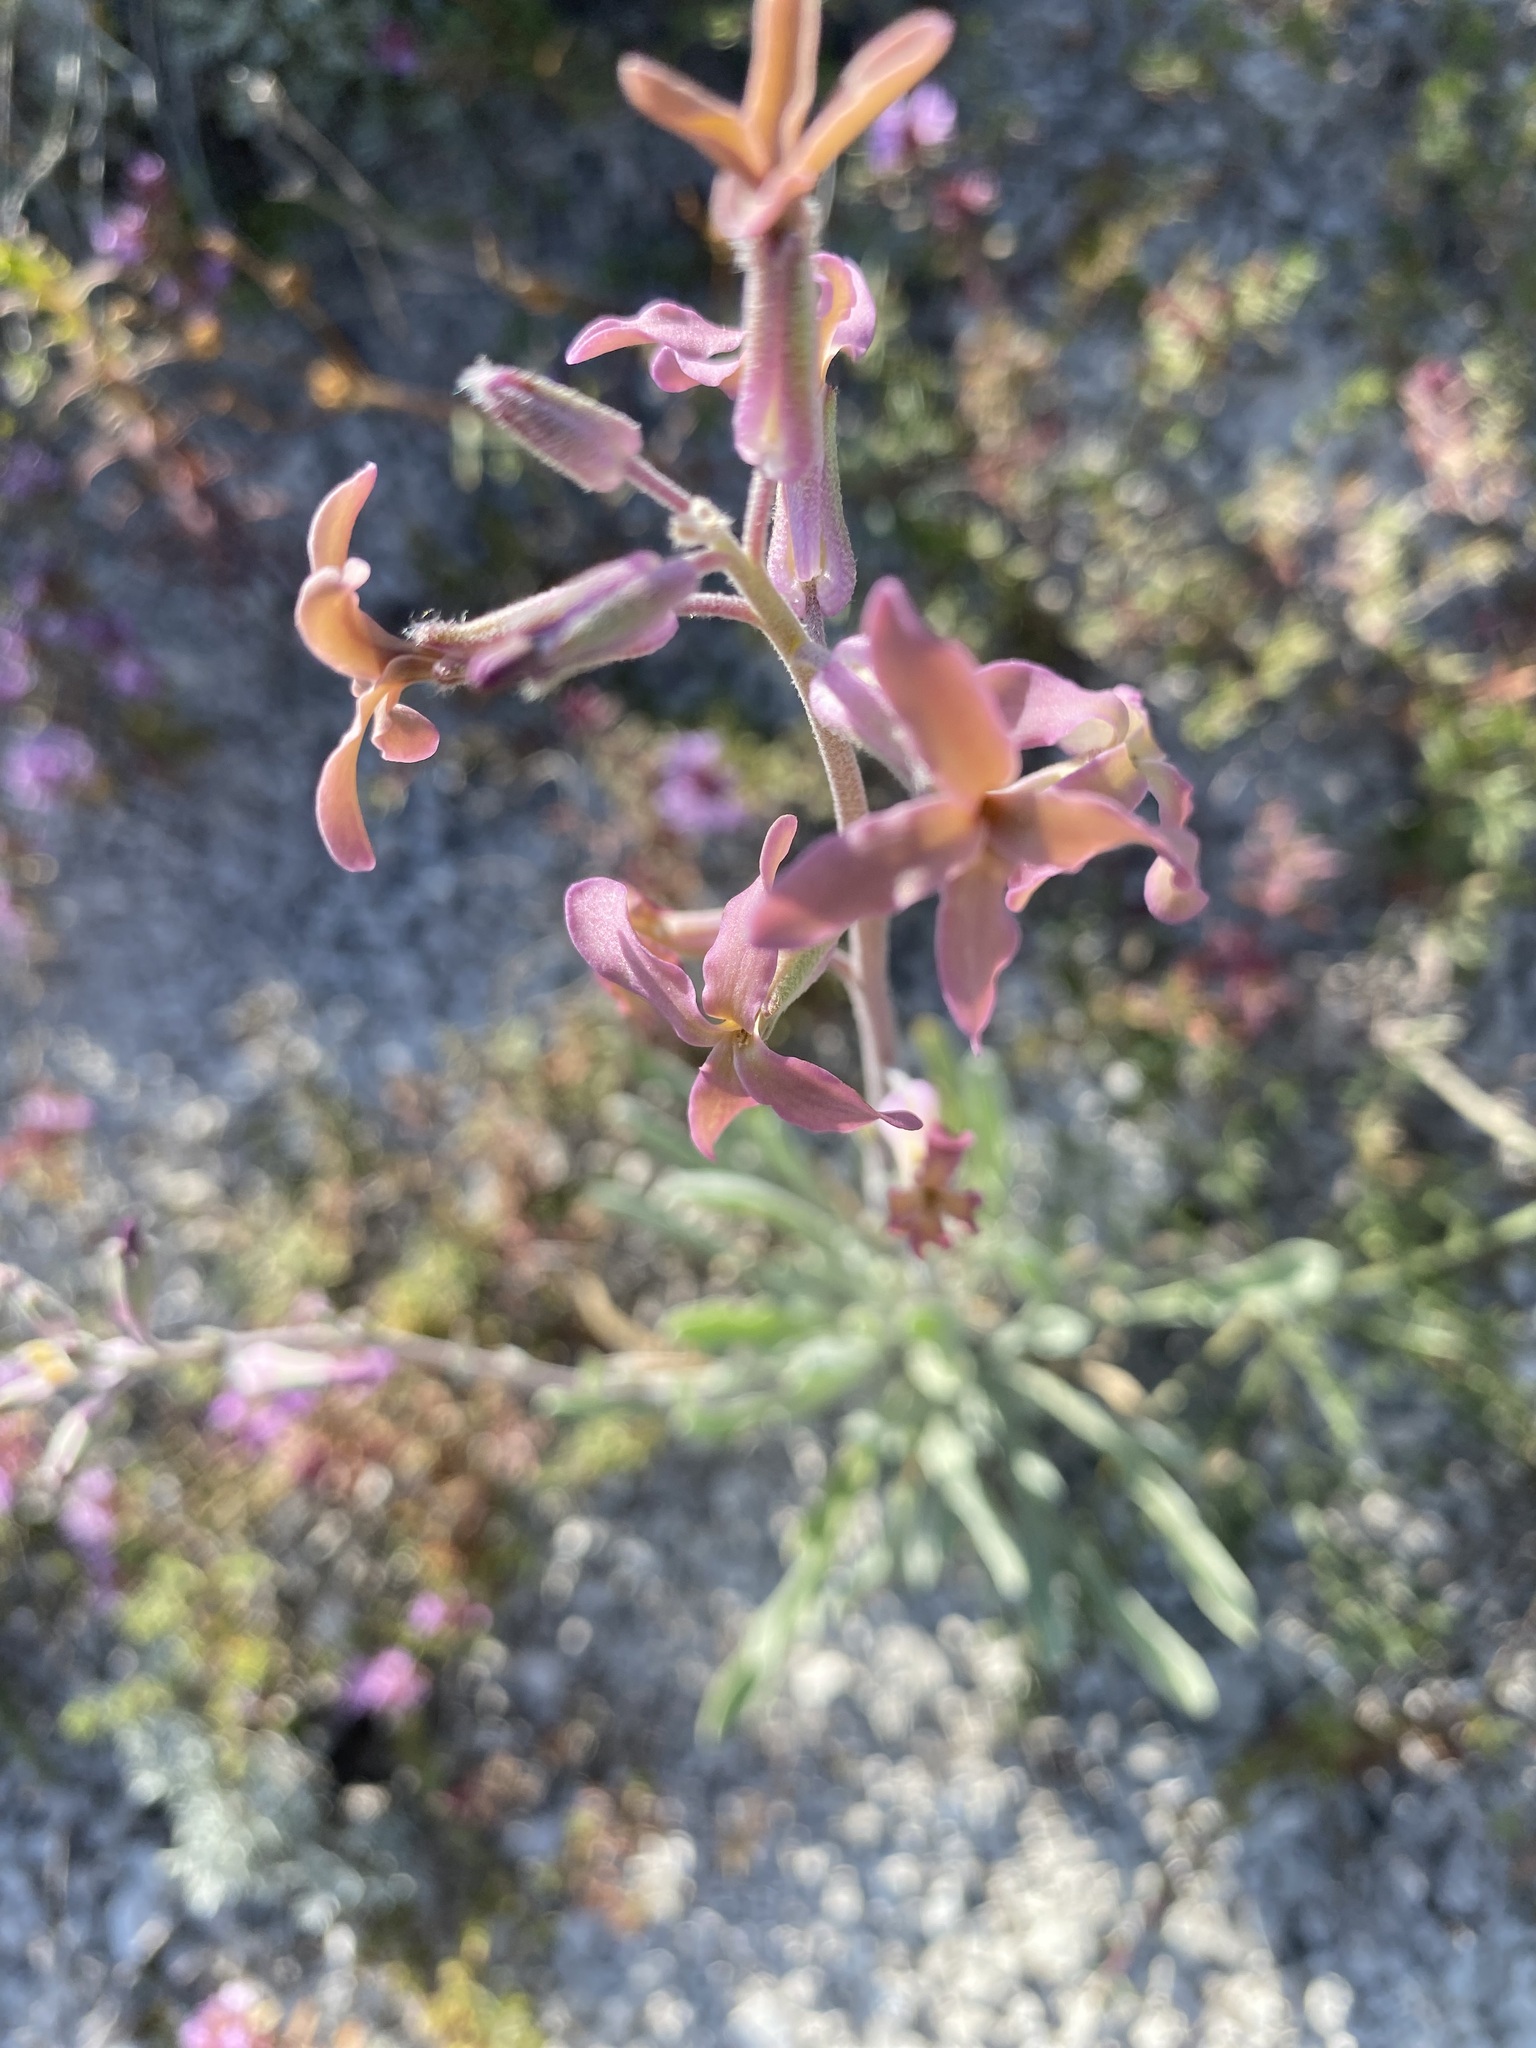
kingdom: Plantae
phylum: Tracheophyta
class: Magnoliopsida
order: Brassicales
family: Brassicaceae
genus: Matthiola
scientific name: Matthiola fragrans
